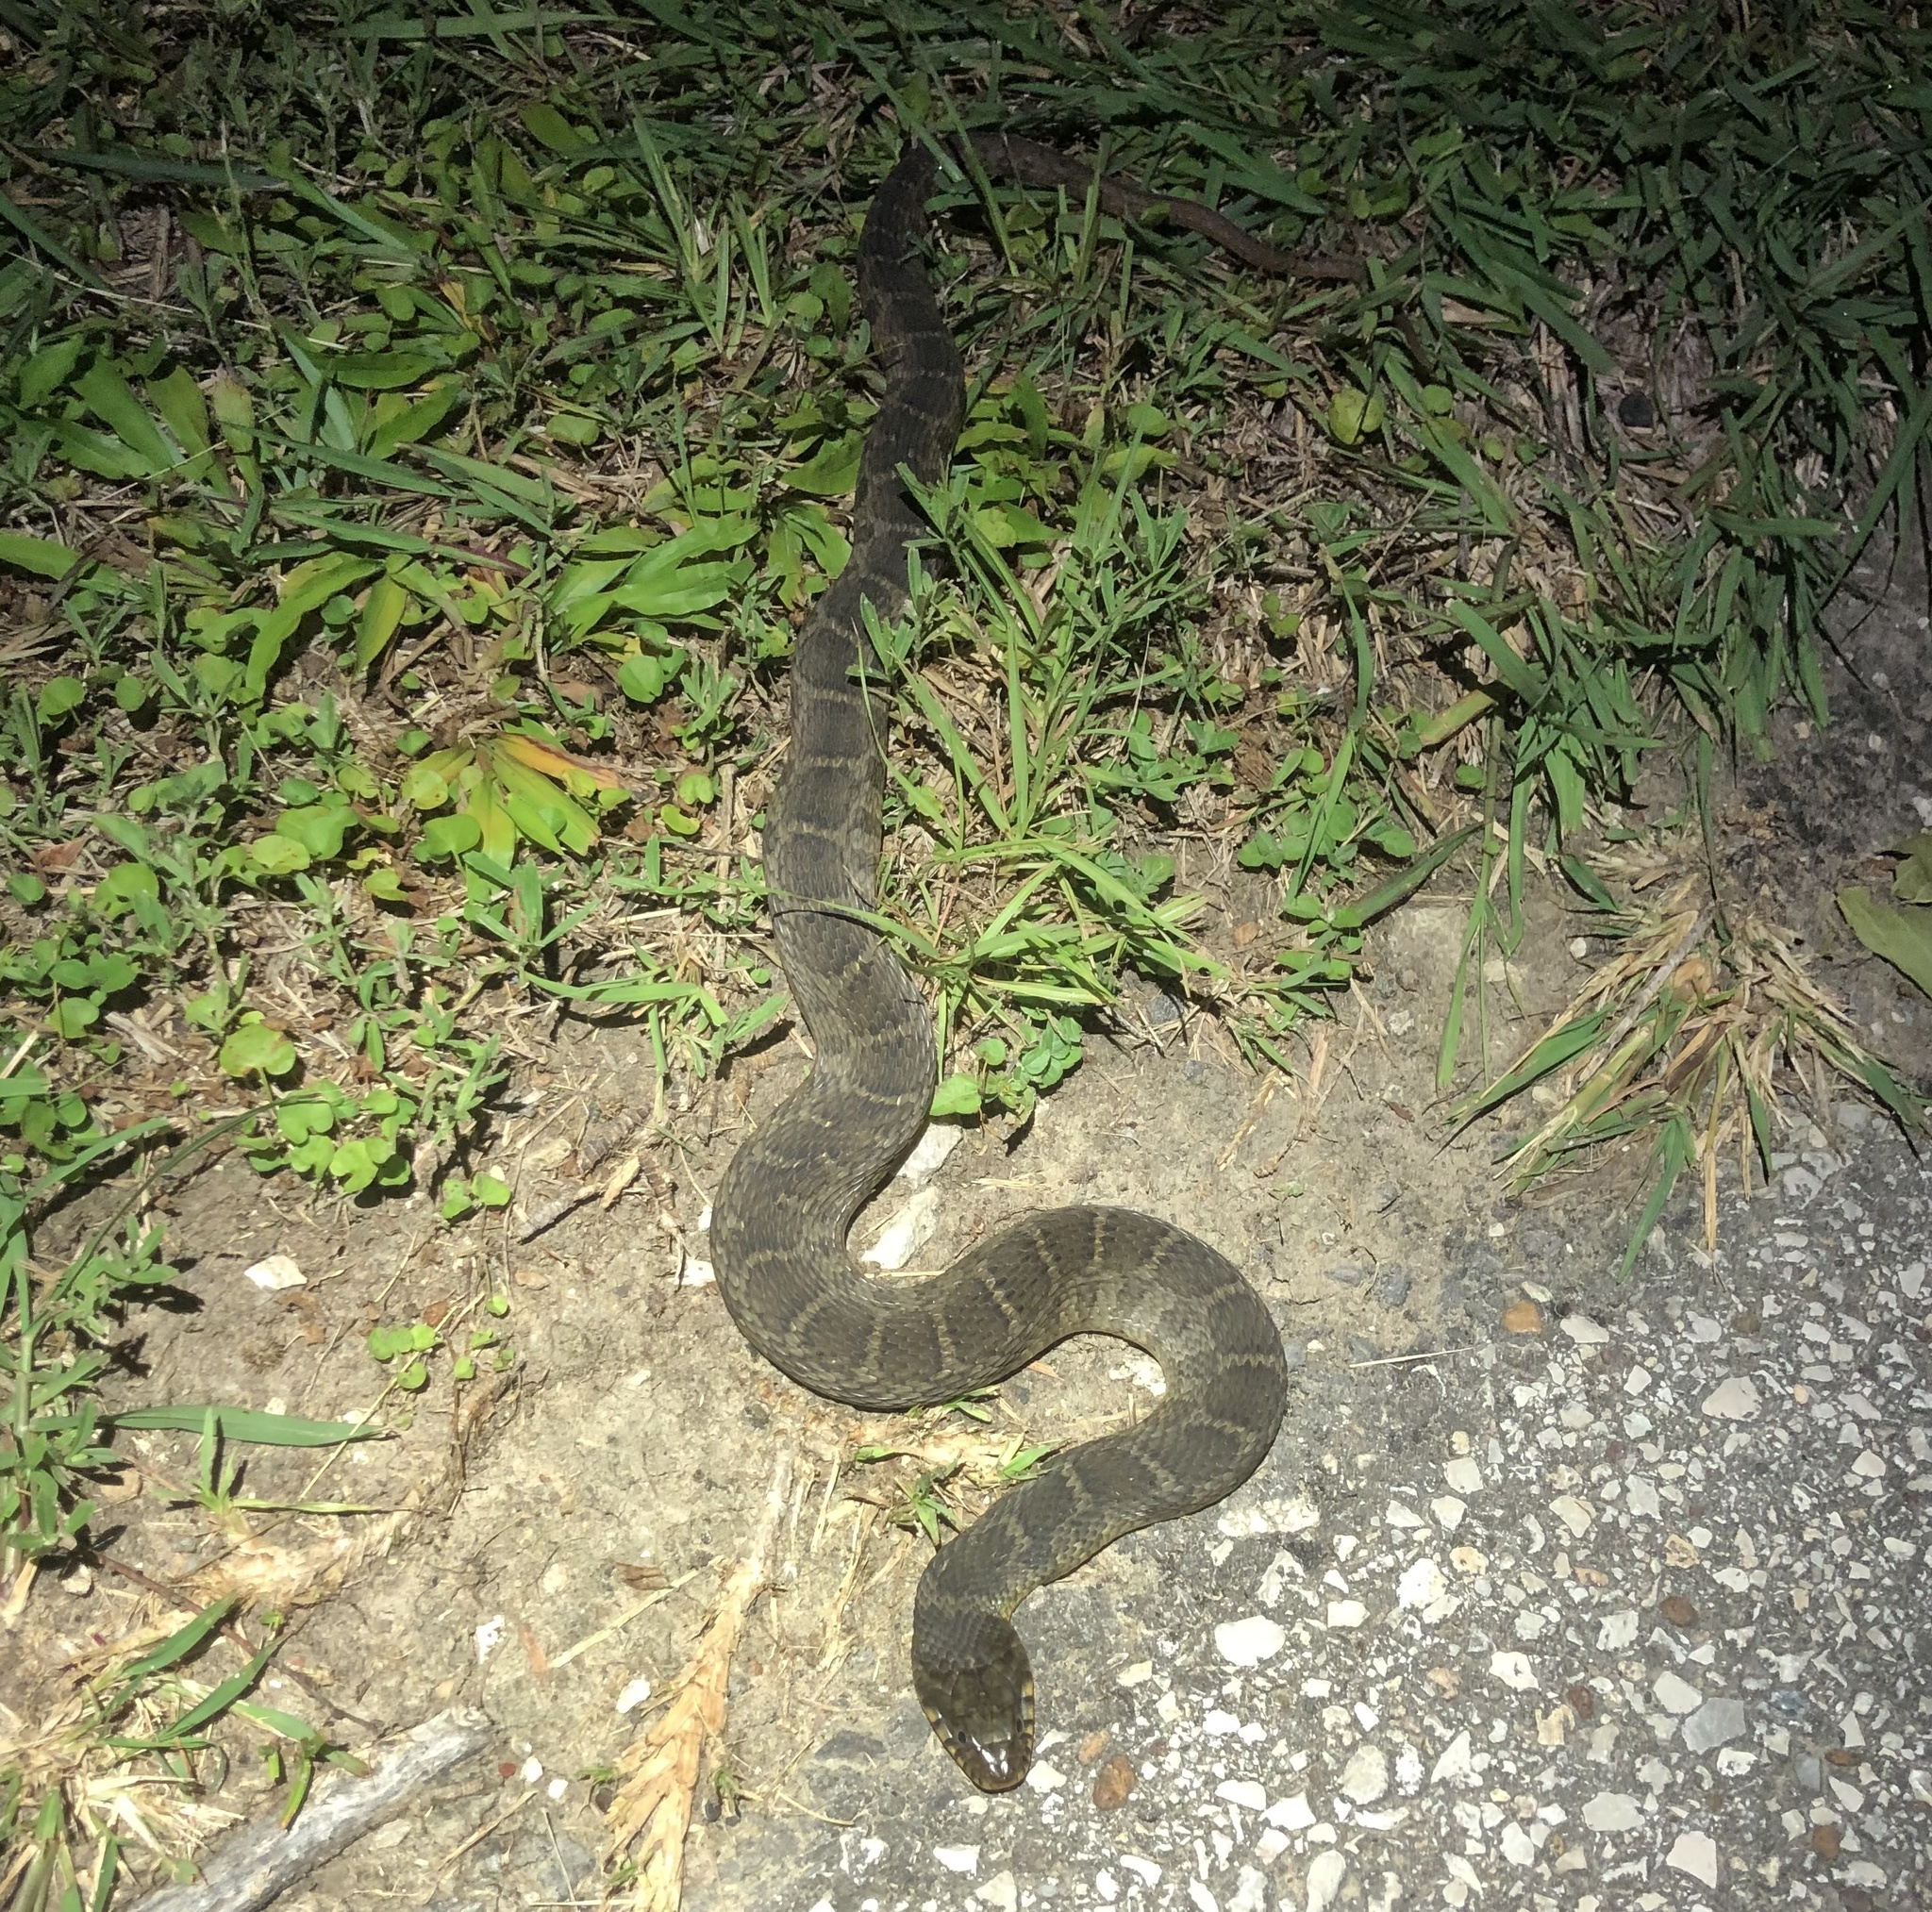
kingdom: Animalia
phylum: Chordata
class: Squamata
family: Colubridae
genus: Nerodia
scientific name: Nerodia erythrogaster
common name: Plainbelly water snake
